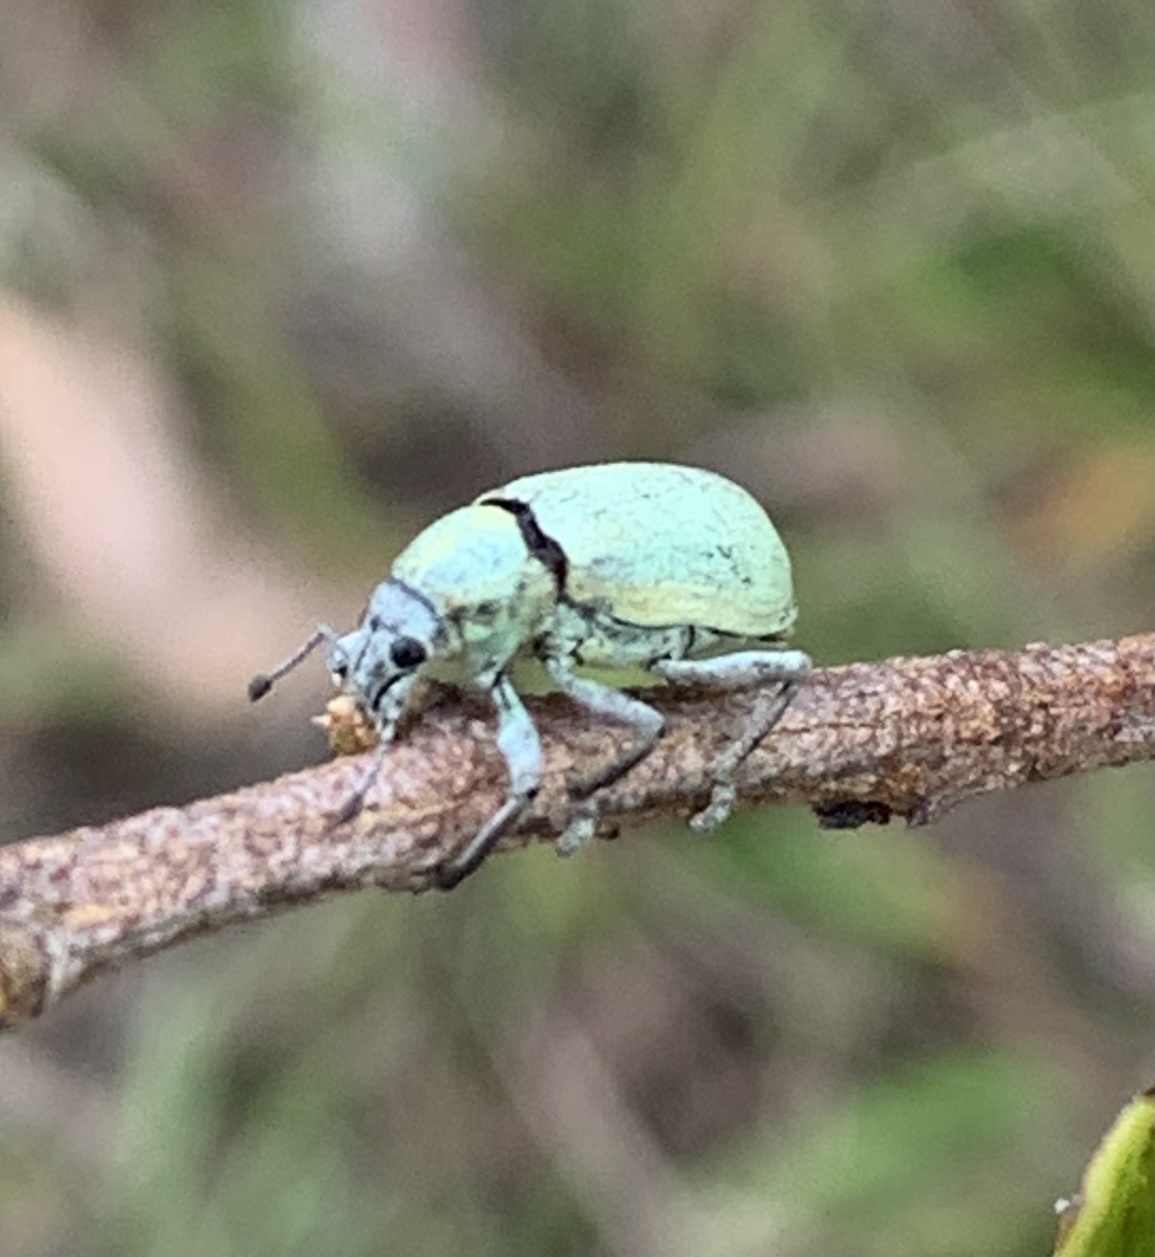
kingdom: Animalia
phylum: Arthropoda
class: Insecta
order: Coleoptera
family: Curculionidae
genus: Pachnaeus
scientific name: Pachnaeus litus
